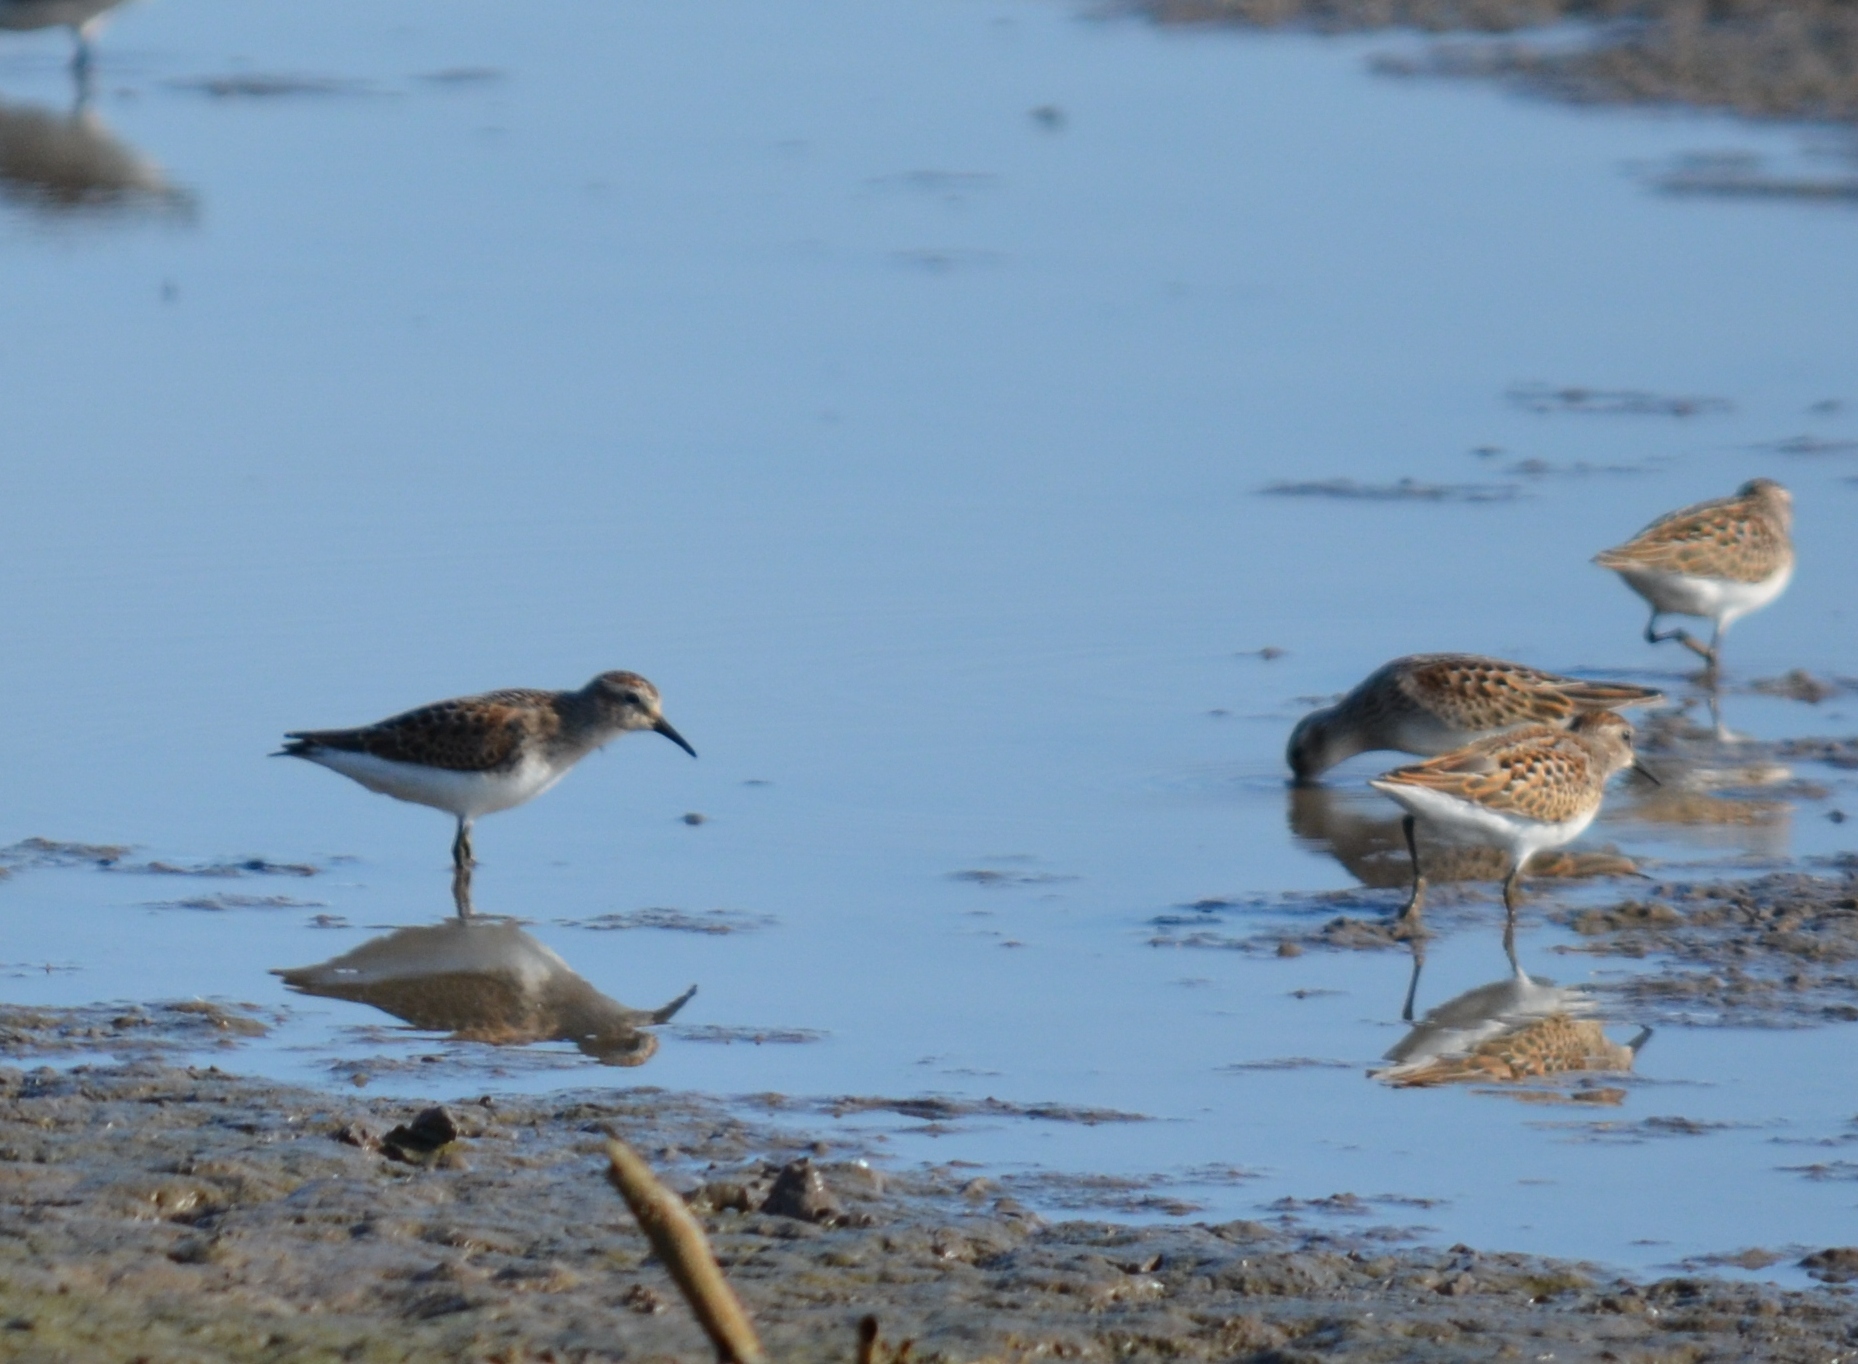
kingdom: Animalia
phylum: Chordata
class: Aves
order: Charadriiformes
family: Scolopacidae
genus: Calidris
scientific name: Calidris pusilla
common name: Semipalmated sandpiper
